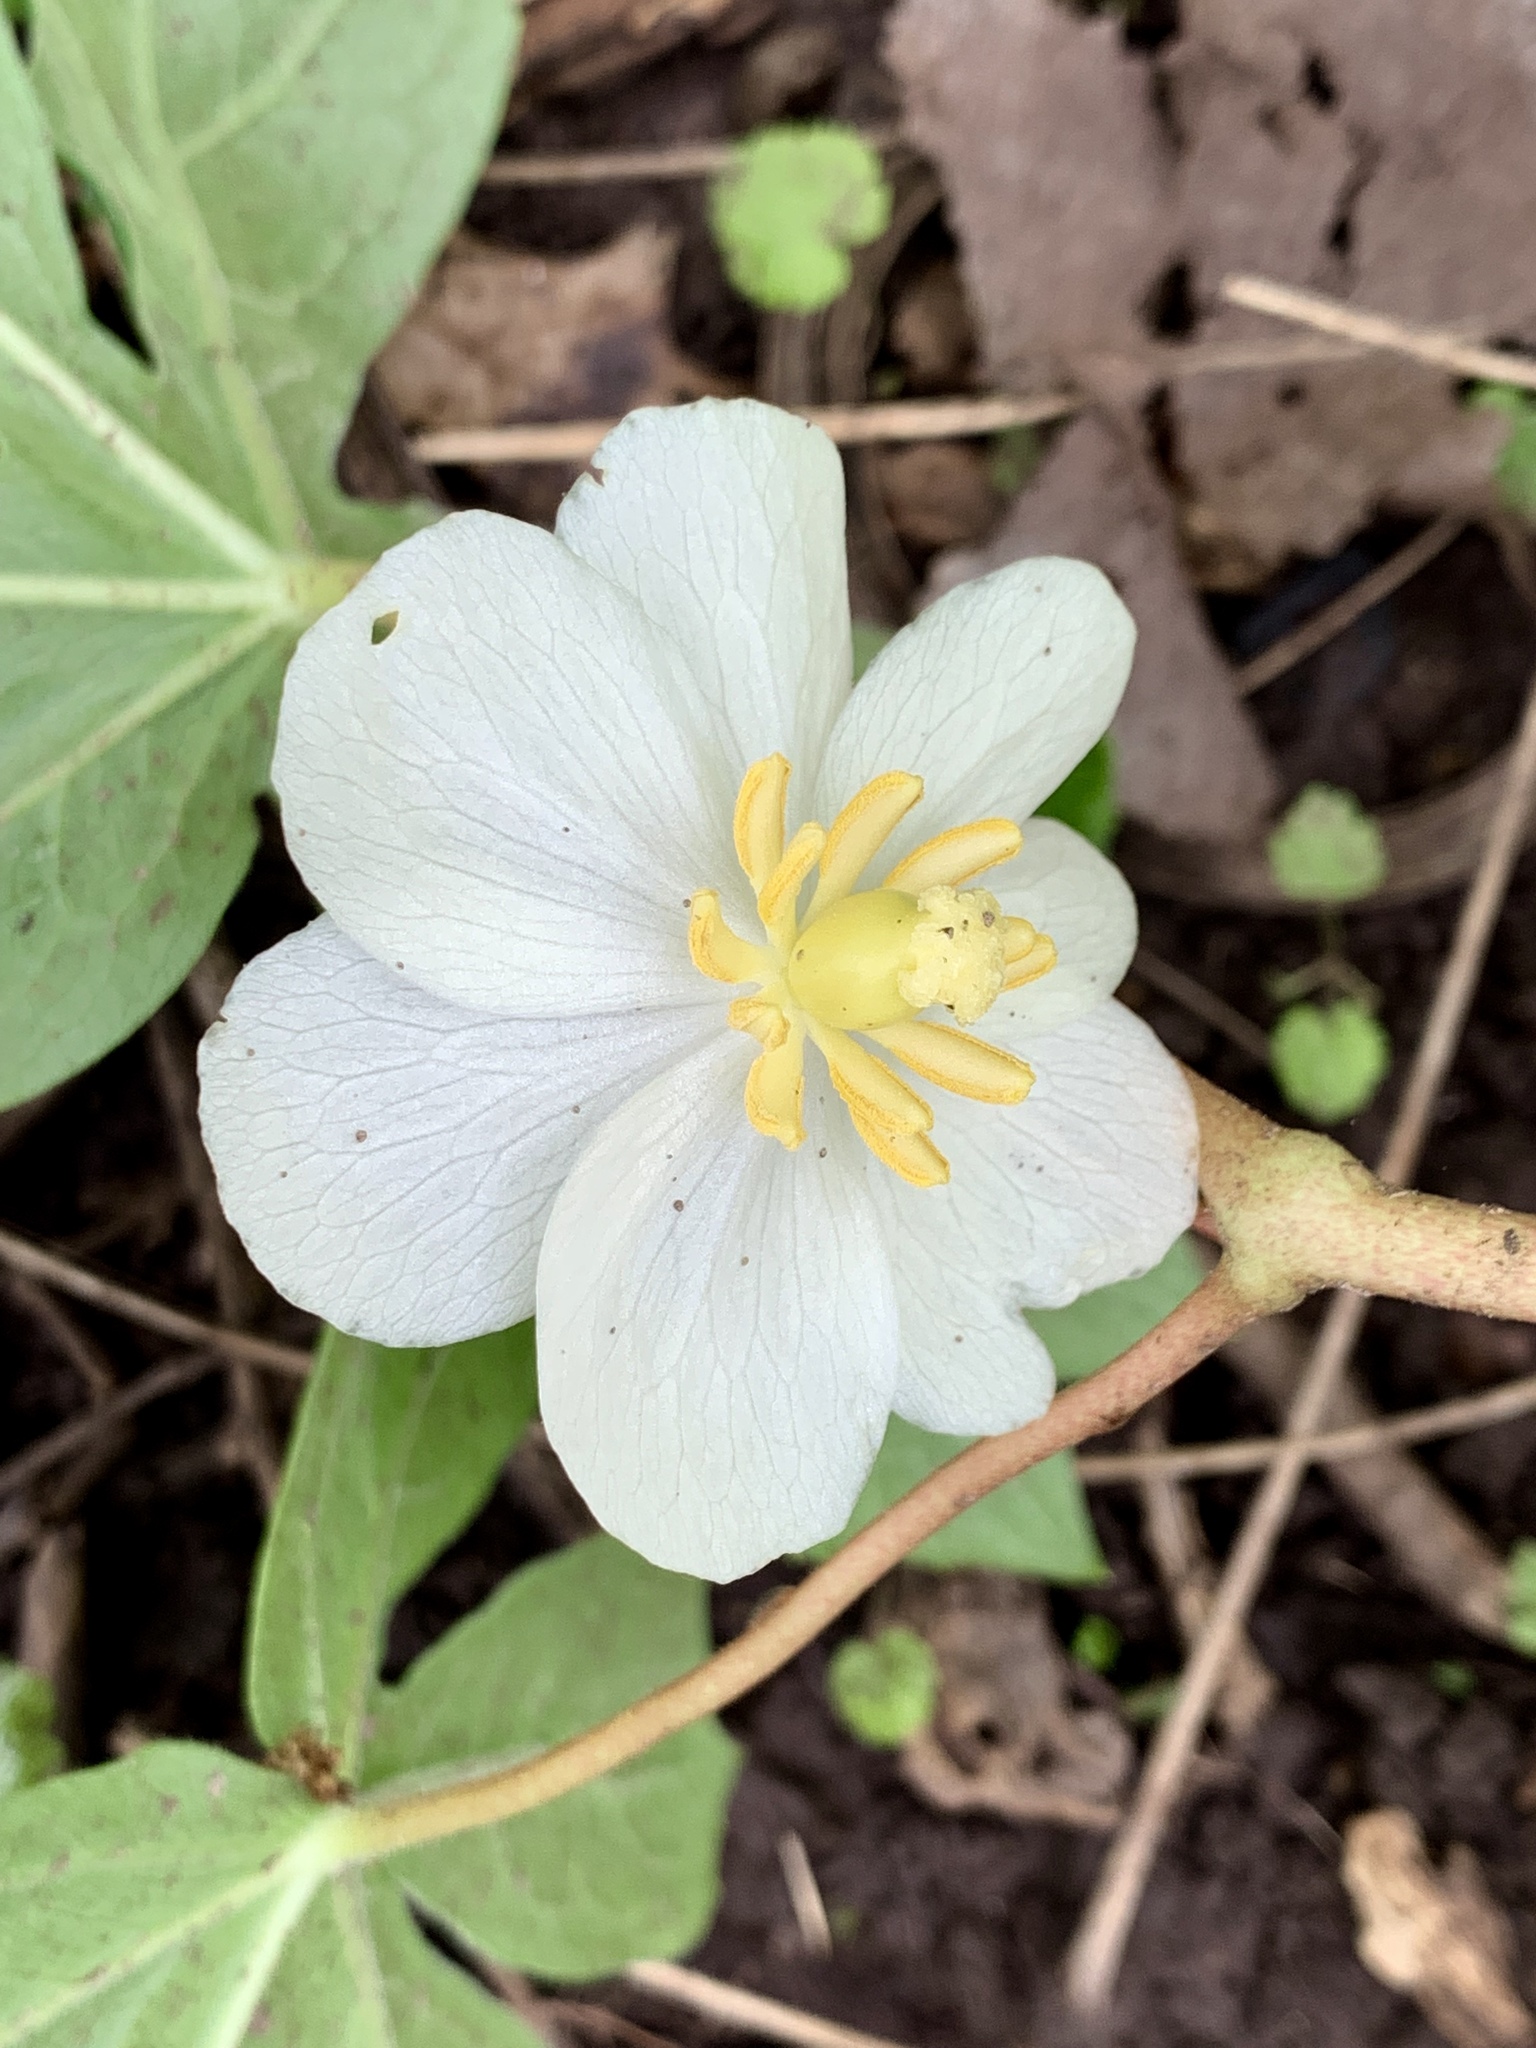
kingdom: Plantae
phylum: Tracheophyta
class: Magnoliopsida
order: Ranunculales
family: Berberidaceae
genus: Podophyllum
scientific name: Podophyllum peltatum
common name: Wild mandrake
